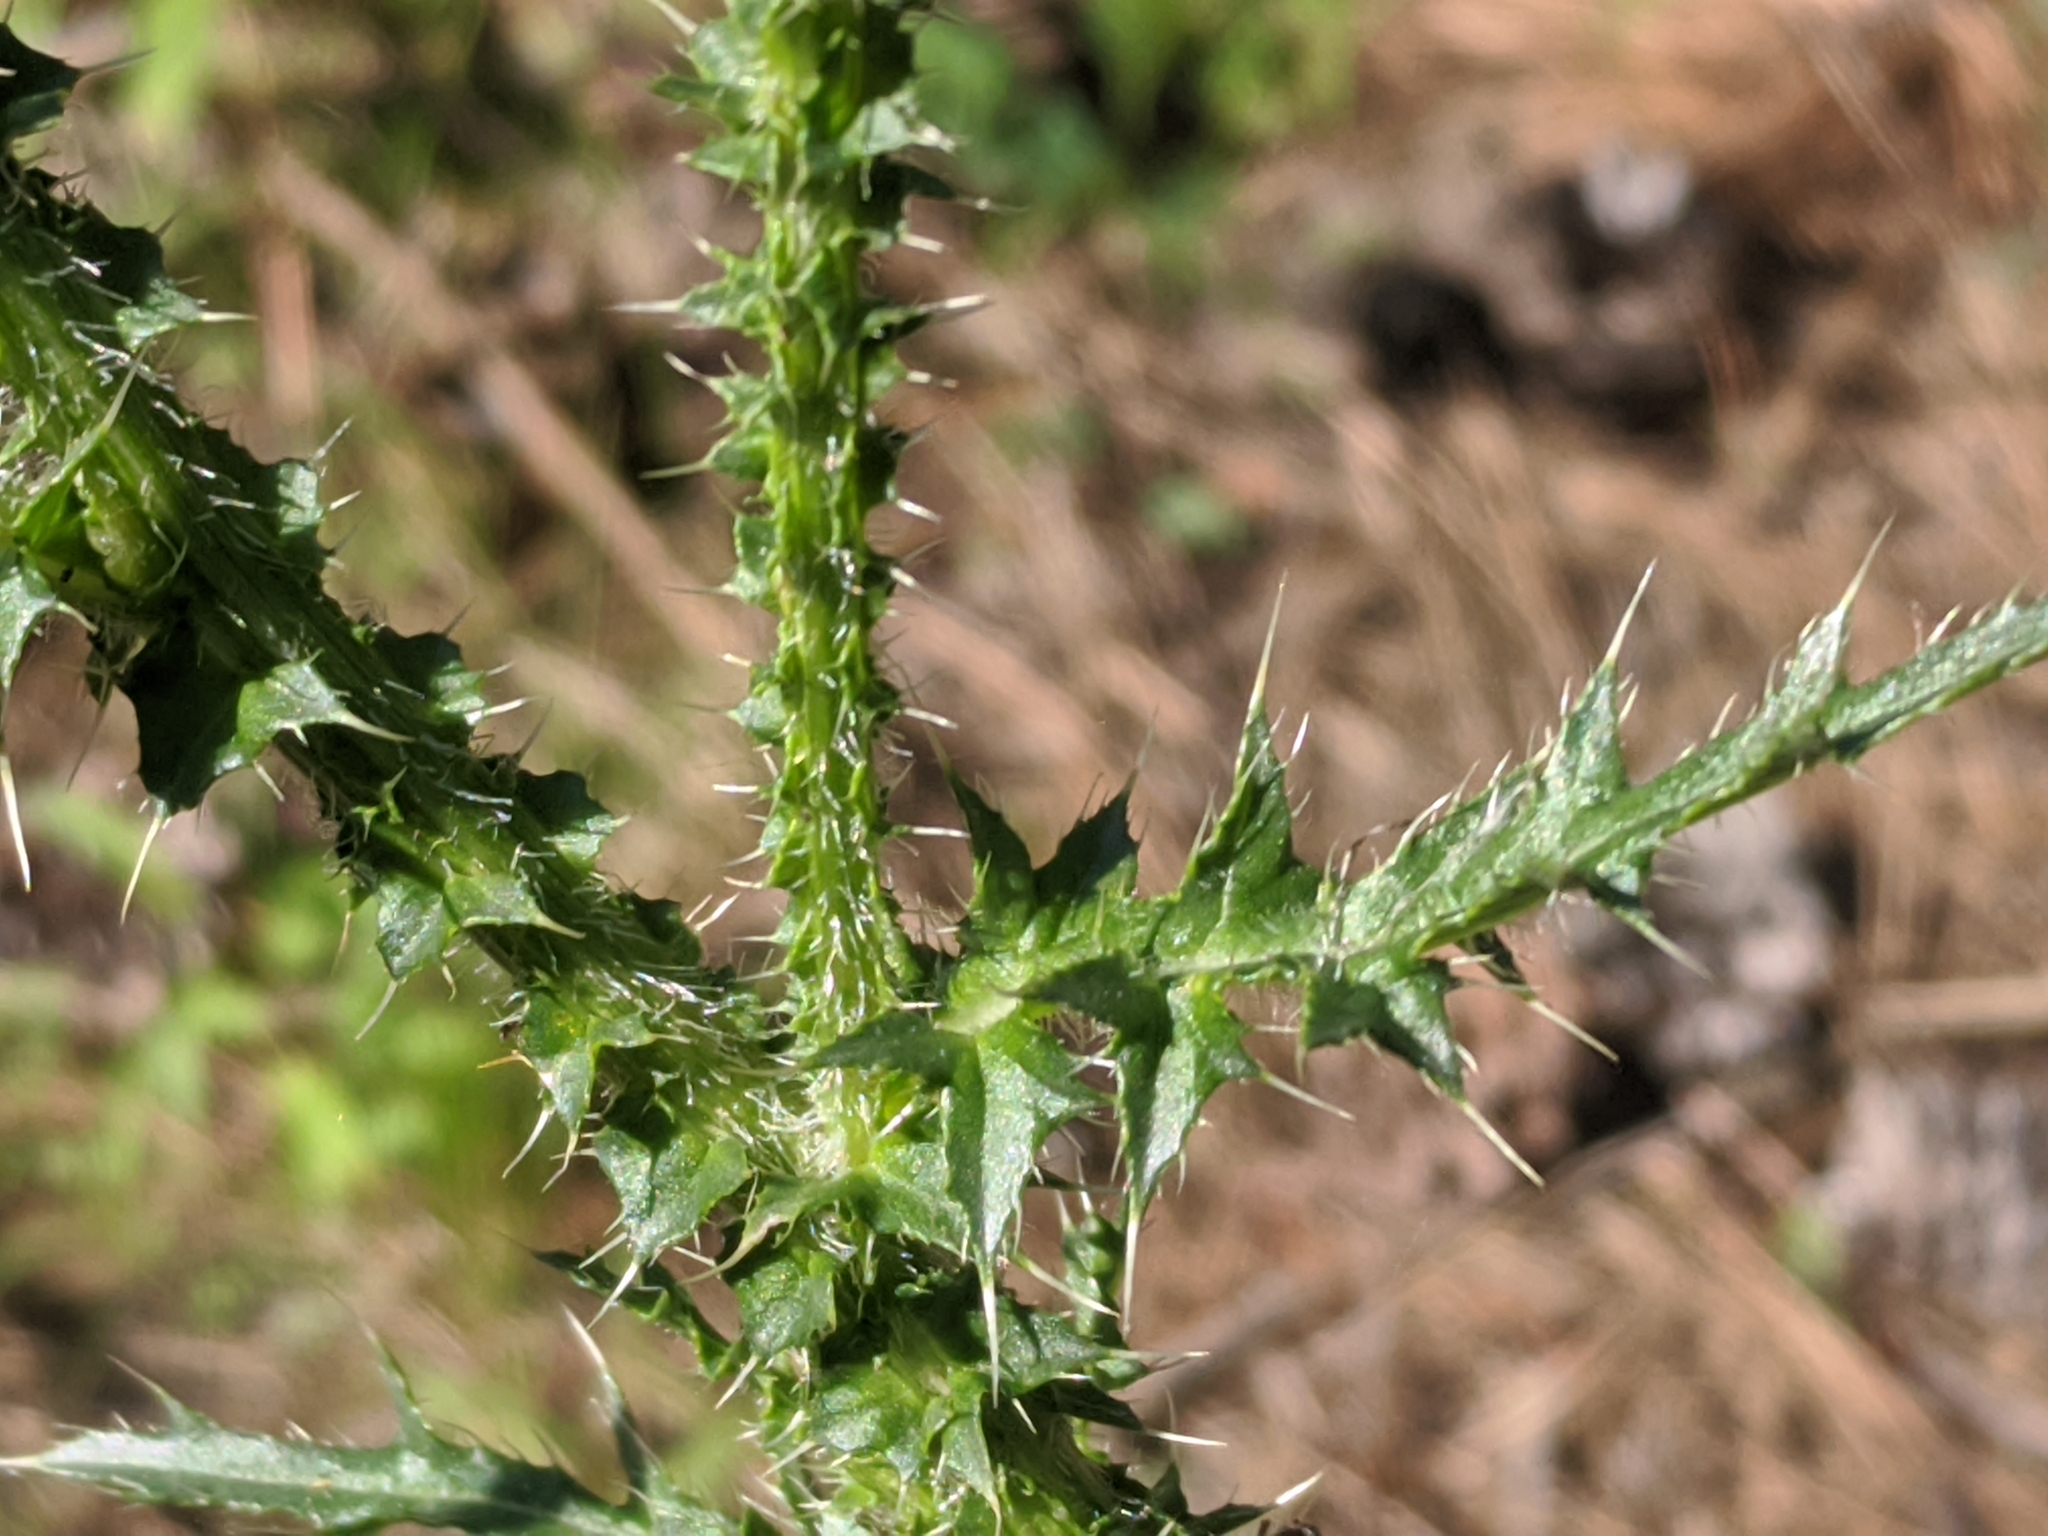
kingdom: Plantae
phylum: Tracheophyta
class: Magnoliopsida
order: Asterales
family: Asteraceae
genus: Carduus
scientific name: Carduus acanthoides
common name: Plumeless thistle
